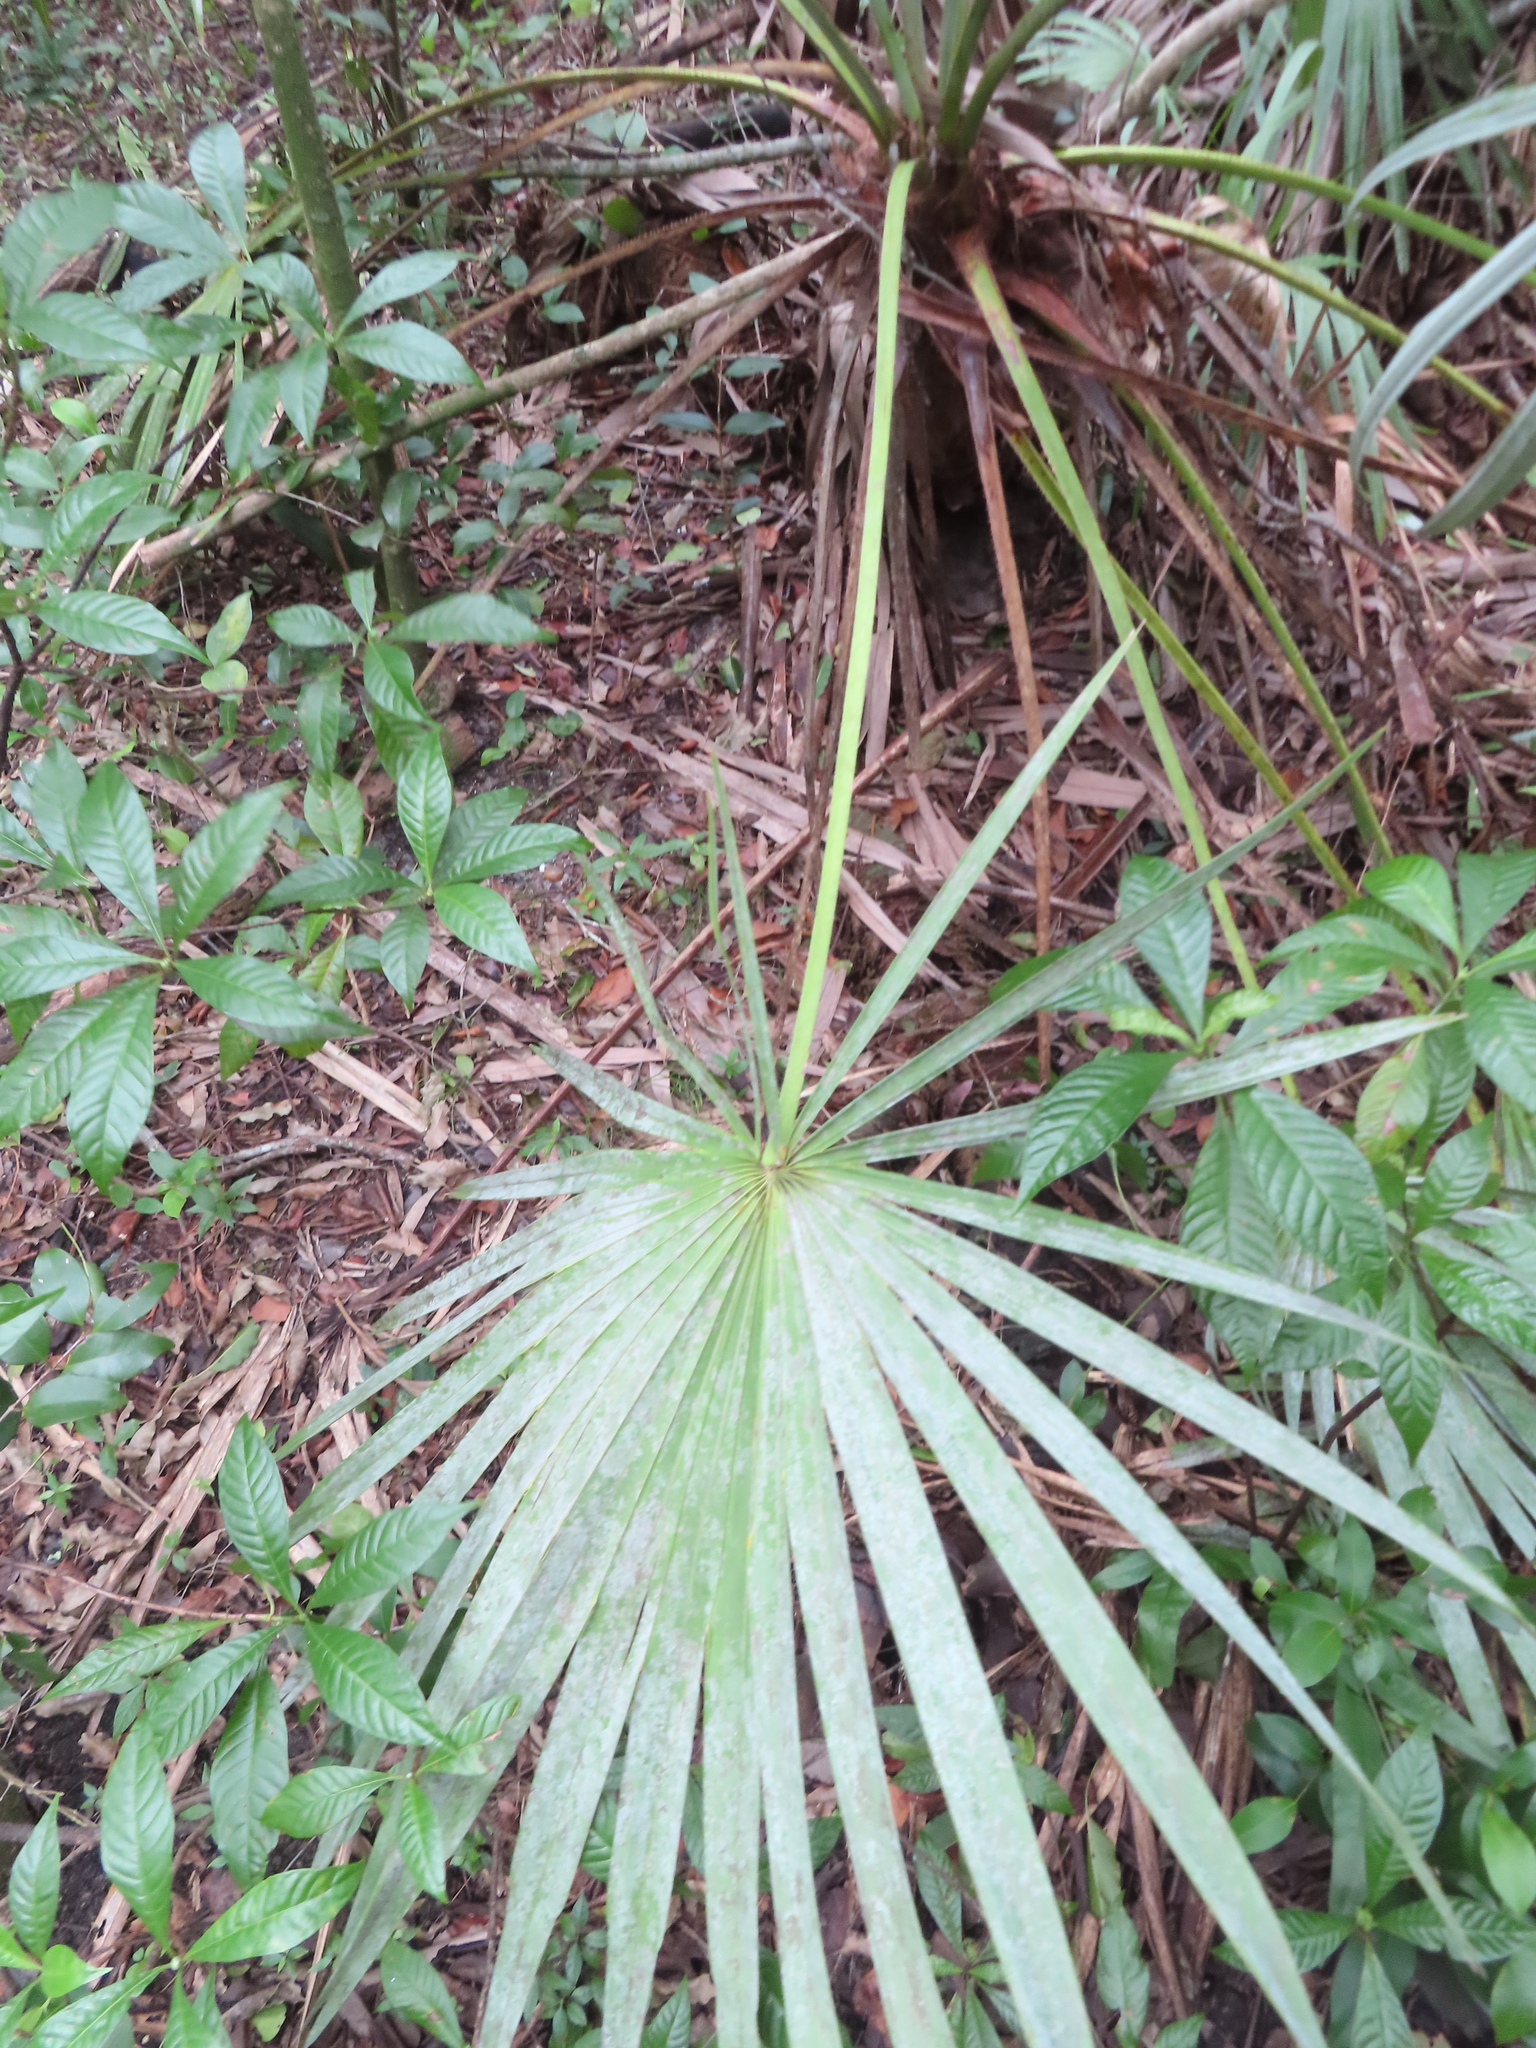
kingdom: Plantae
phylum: Tracheophyta
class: Liliopsida
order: Arecales
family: Arecaceae
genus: Serenoa
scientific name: Serenoa repens
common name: Saw-palmetto
